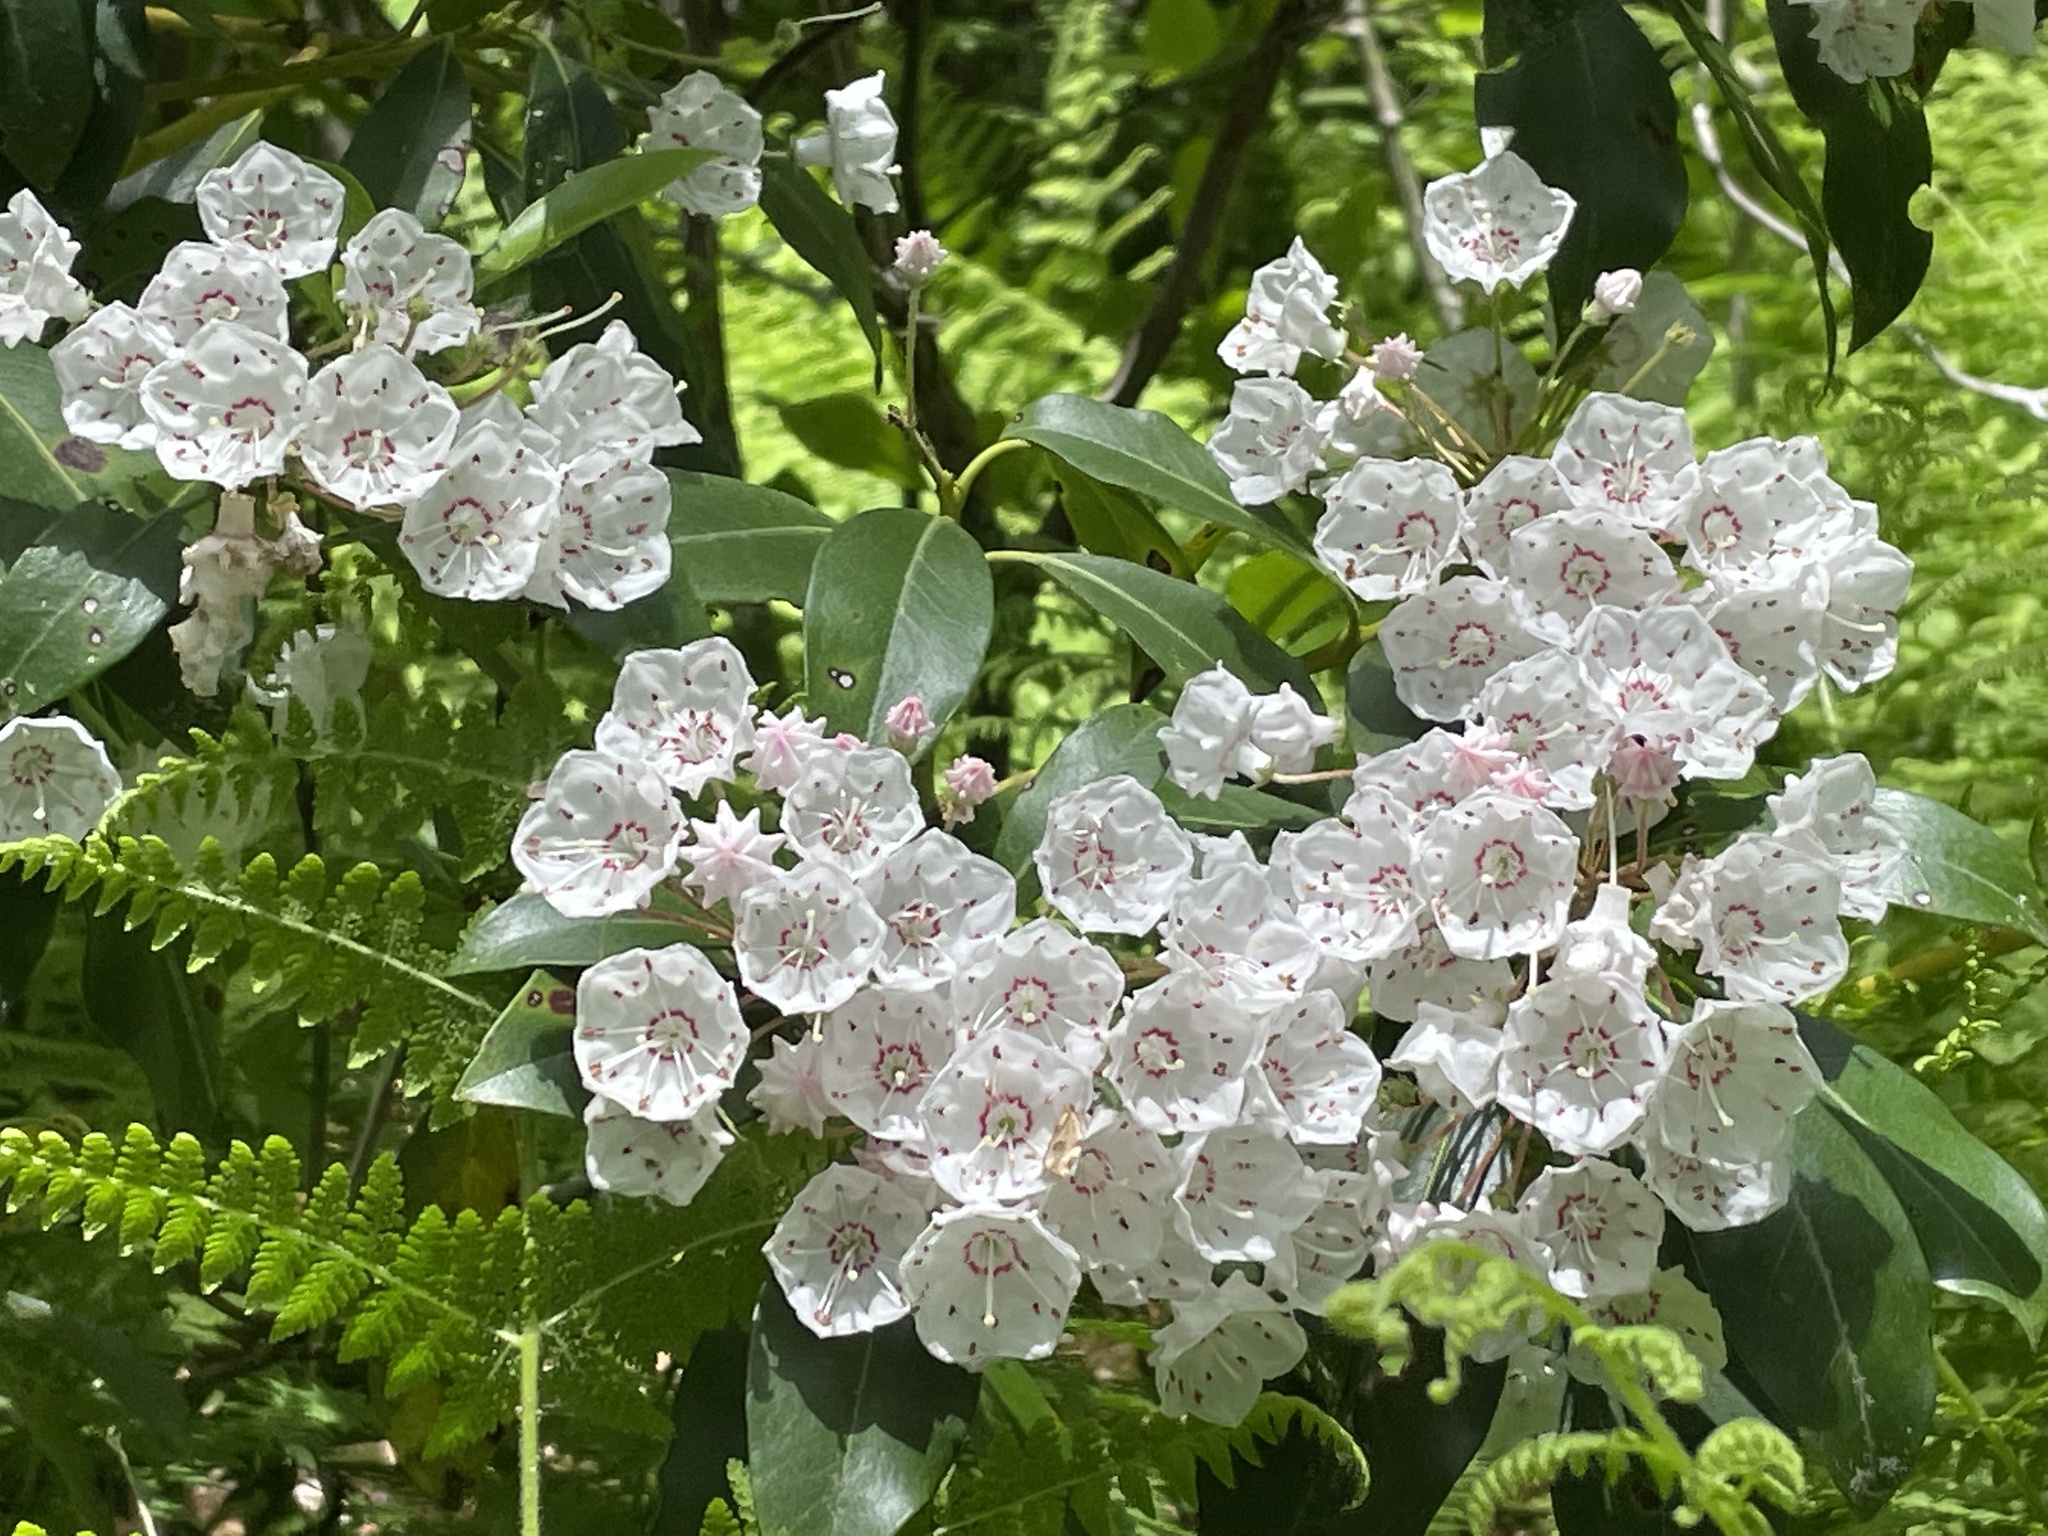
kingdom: Plantae
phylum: Tracheophyta
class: Magnoliopsida
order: Ericales
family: Ericaceae
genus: Kalmia
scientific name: Kalmia latifolia
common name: Mountain-laurel
